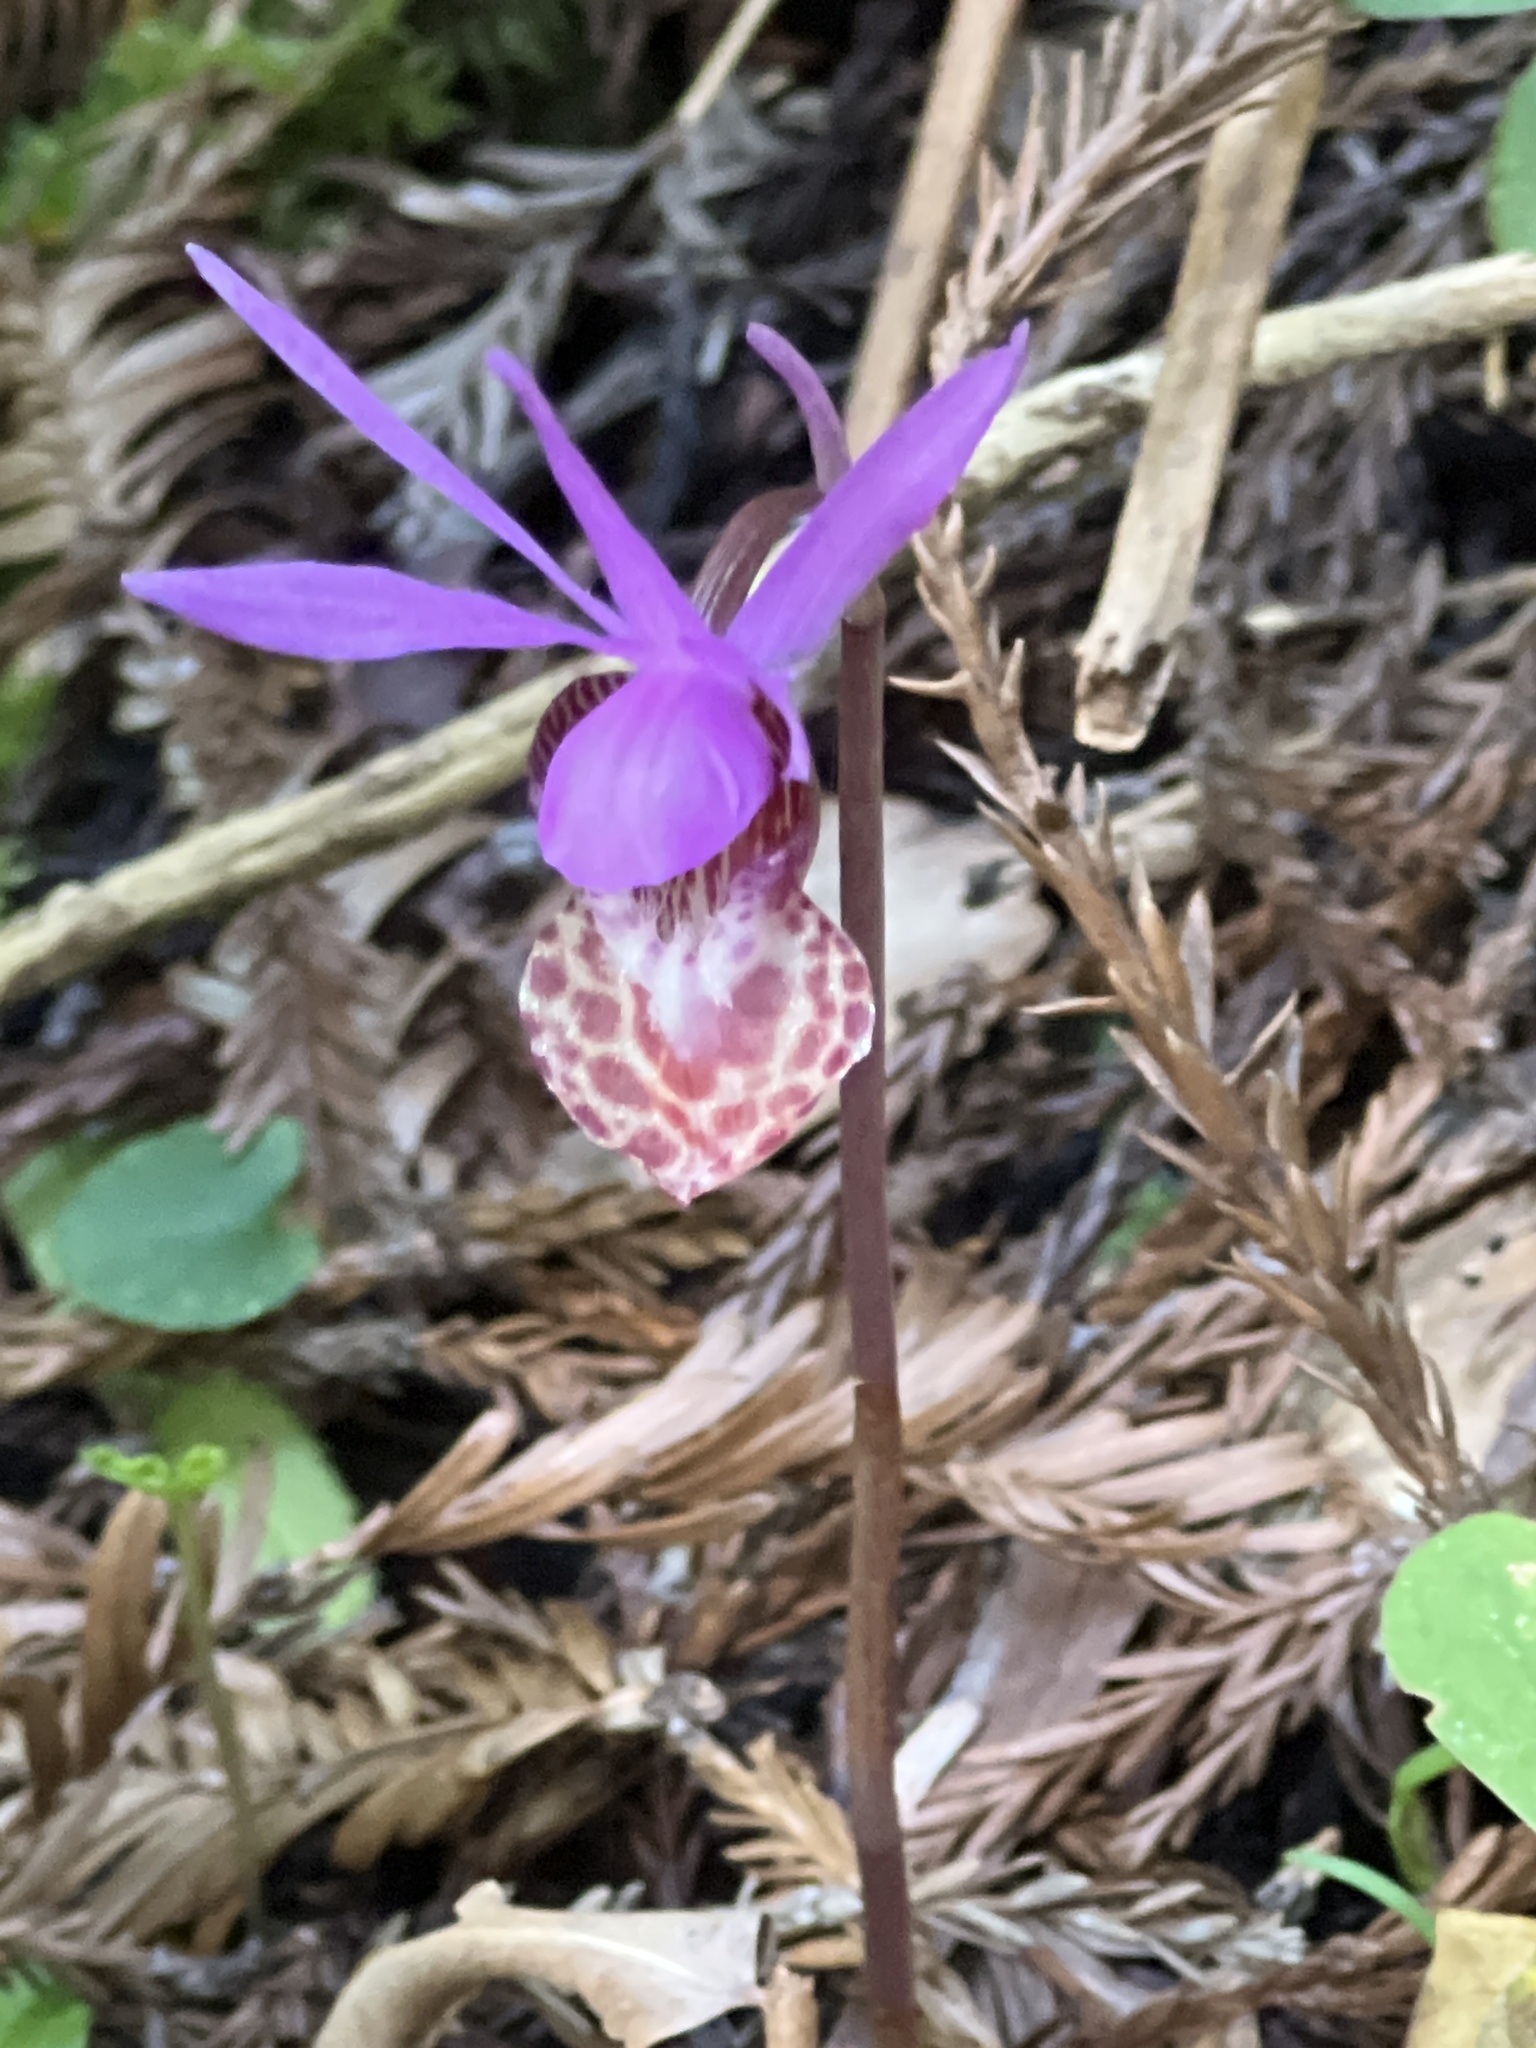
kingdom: Plantae
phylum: Tracheophyta
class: Liliopsida
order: Asparagales
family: Orchidaceae
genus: Calypso
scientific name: Calypso bulbosa
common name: Calypso
